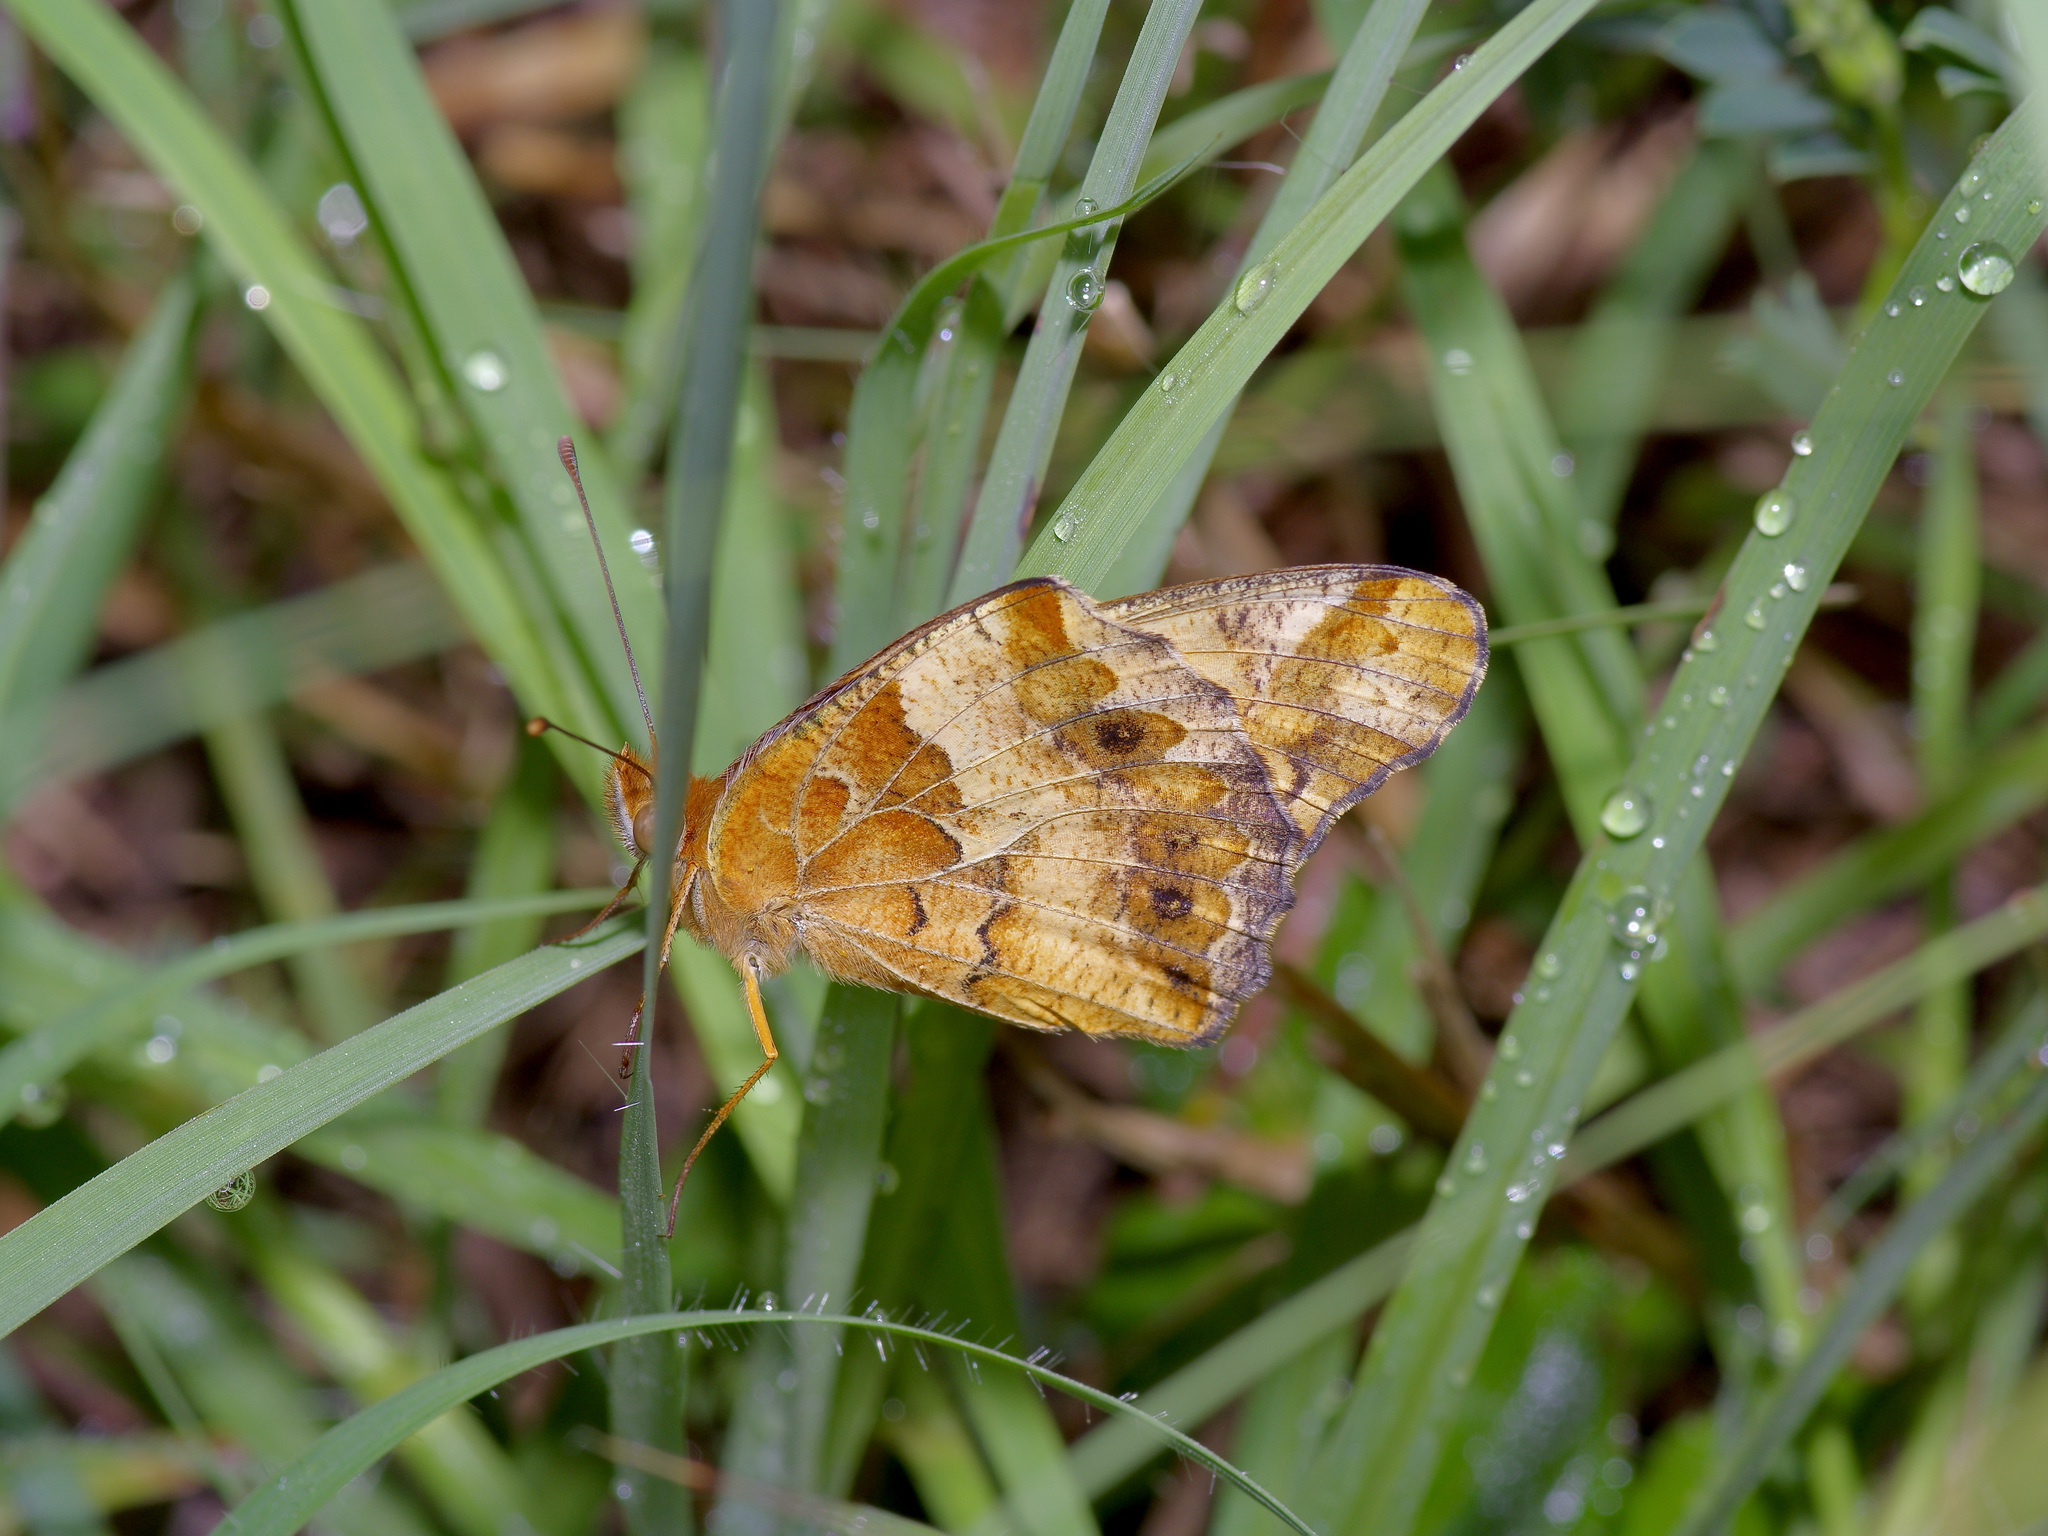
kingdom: Animalia
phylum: Arthropoda
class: Insecta
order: Lepidoptera
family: Nymphalidae
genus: Euptoieta
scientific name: Euptoieta claudia
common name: Variegated fritillary
